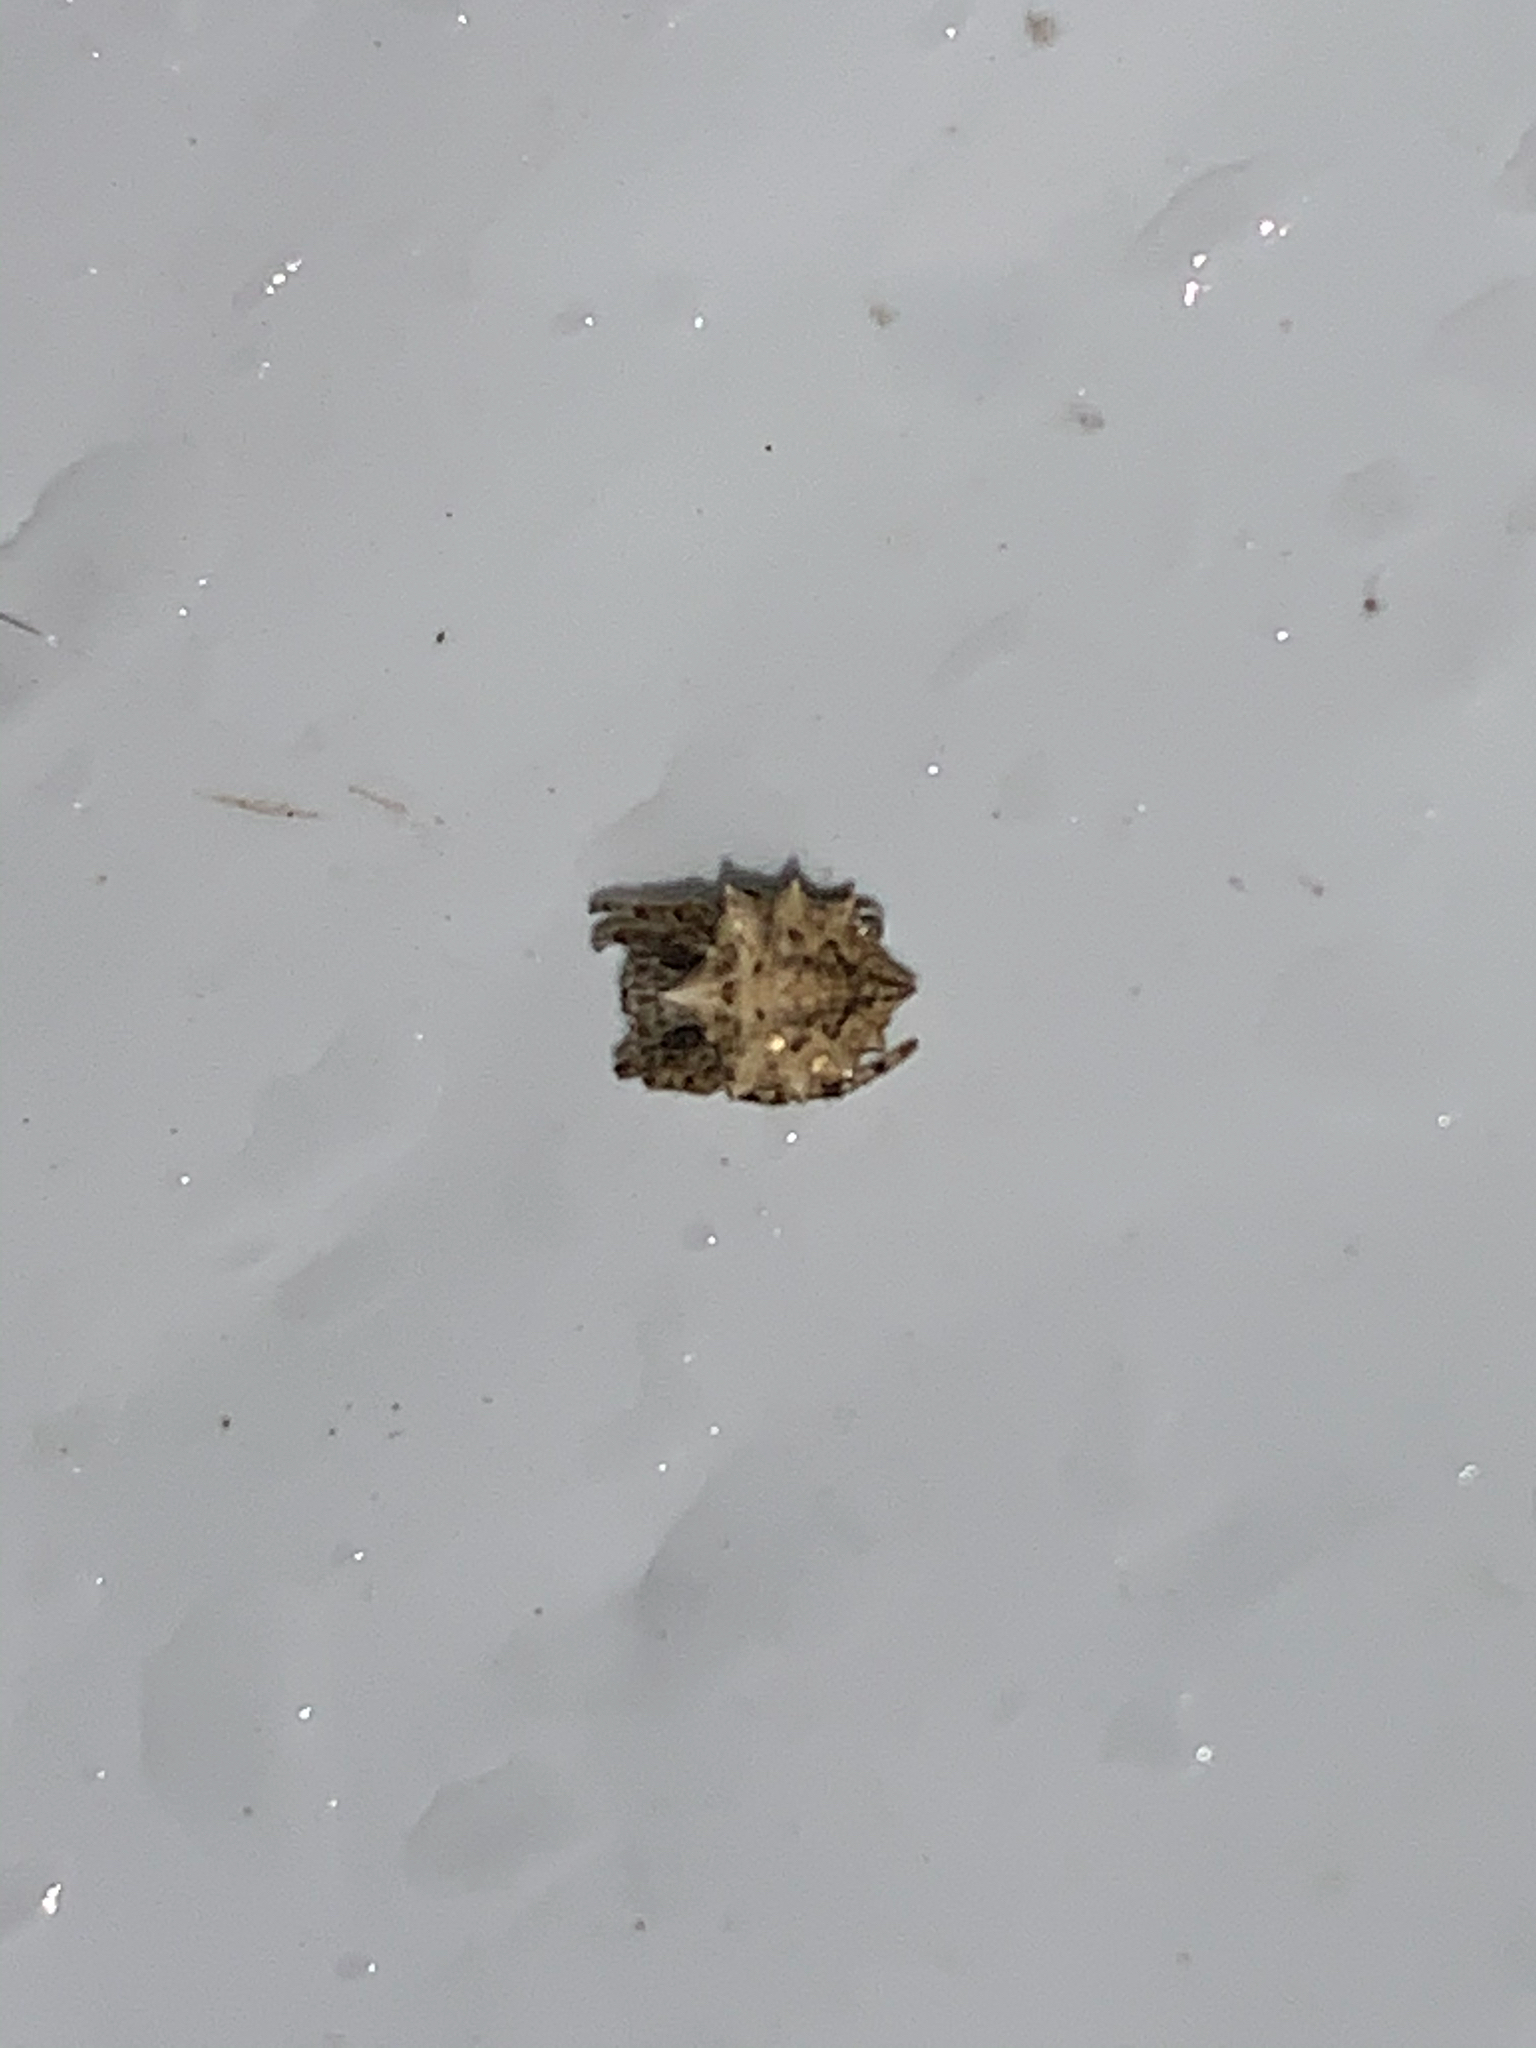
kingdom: Animalia
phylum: Arthropoda
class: Arachnida
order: Araneae
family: Araneidae
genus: Acanthepeira
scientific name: Acanthepeira stellata
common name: Starbellied orbweaver
